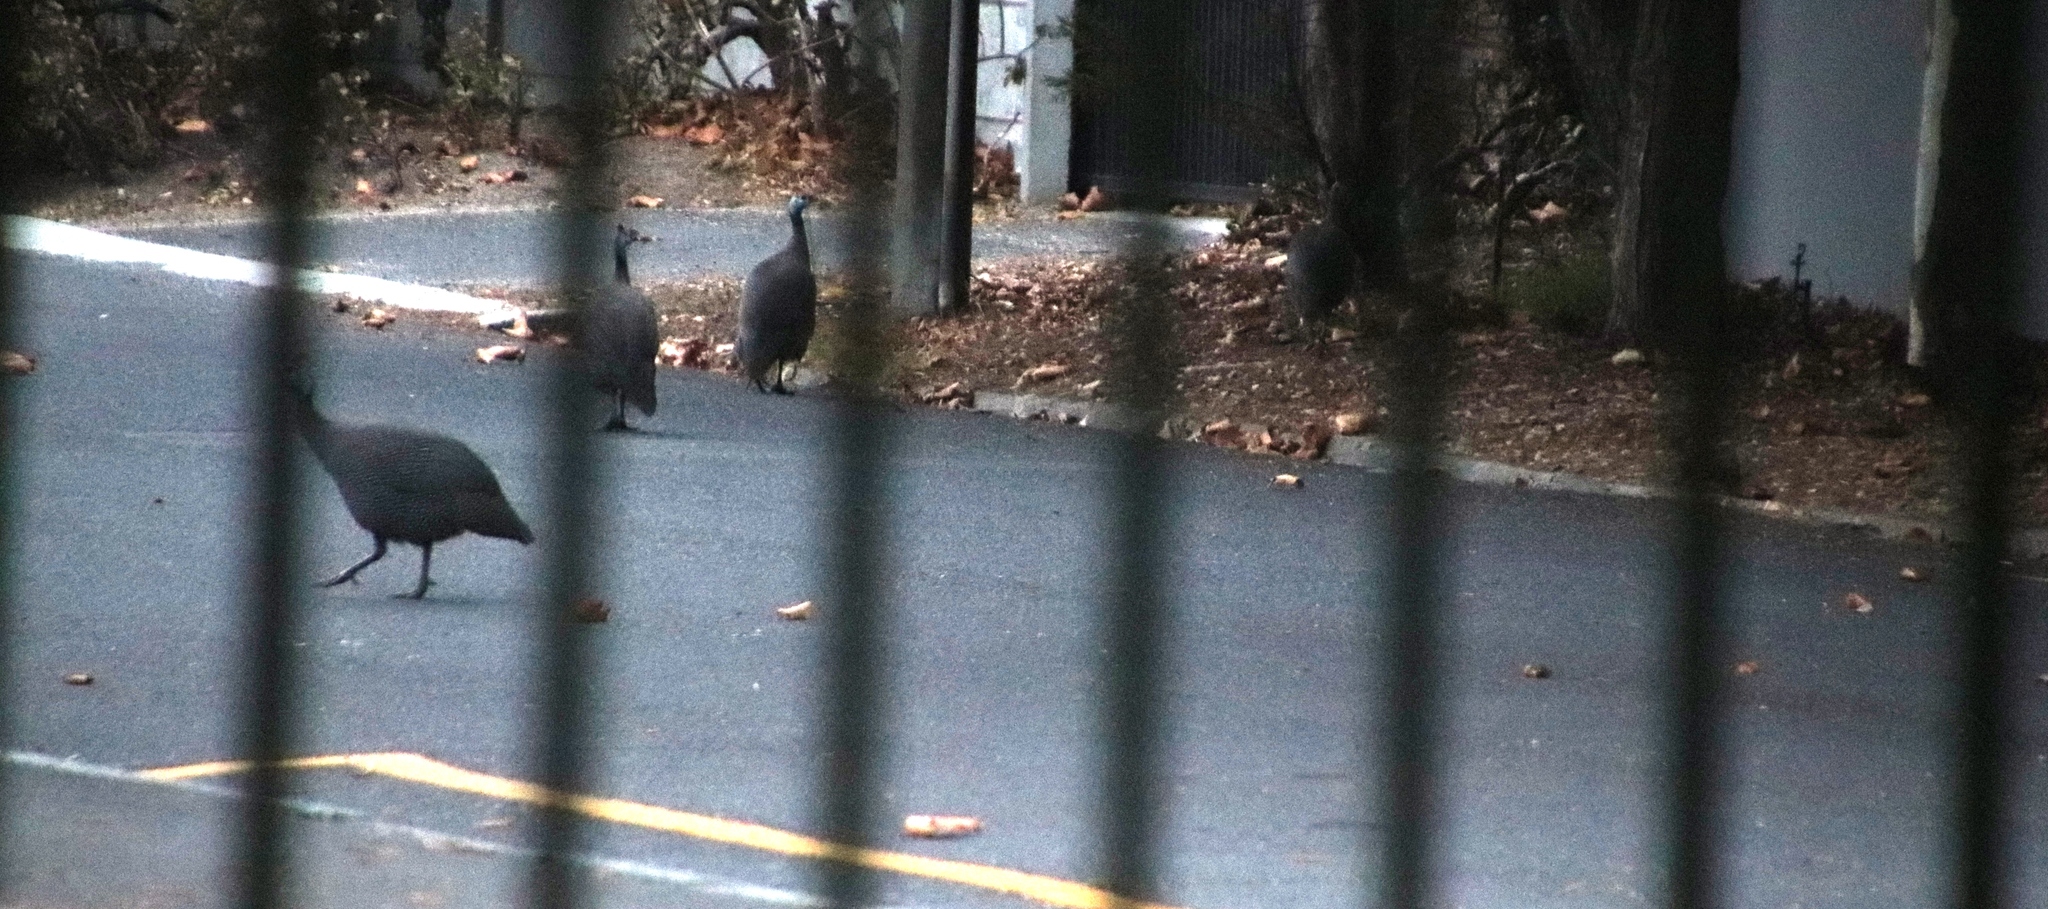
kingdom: Animalia
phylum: Chordata
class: Aves
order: Galliformes
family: Numididae
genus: Numida
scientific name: Numida meleagris
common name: Helmeted guineafowl
